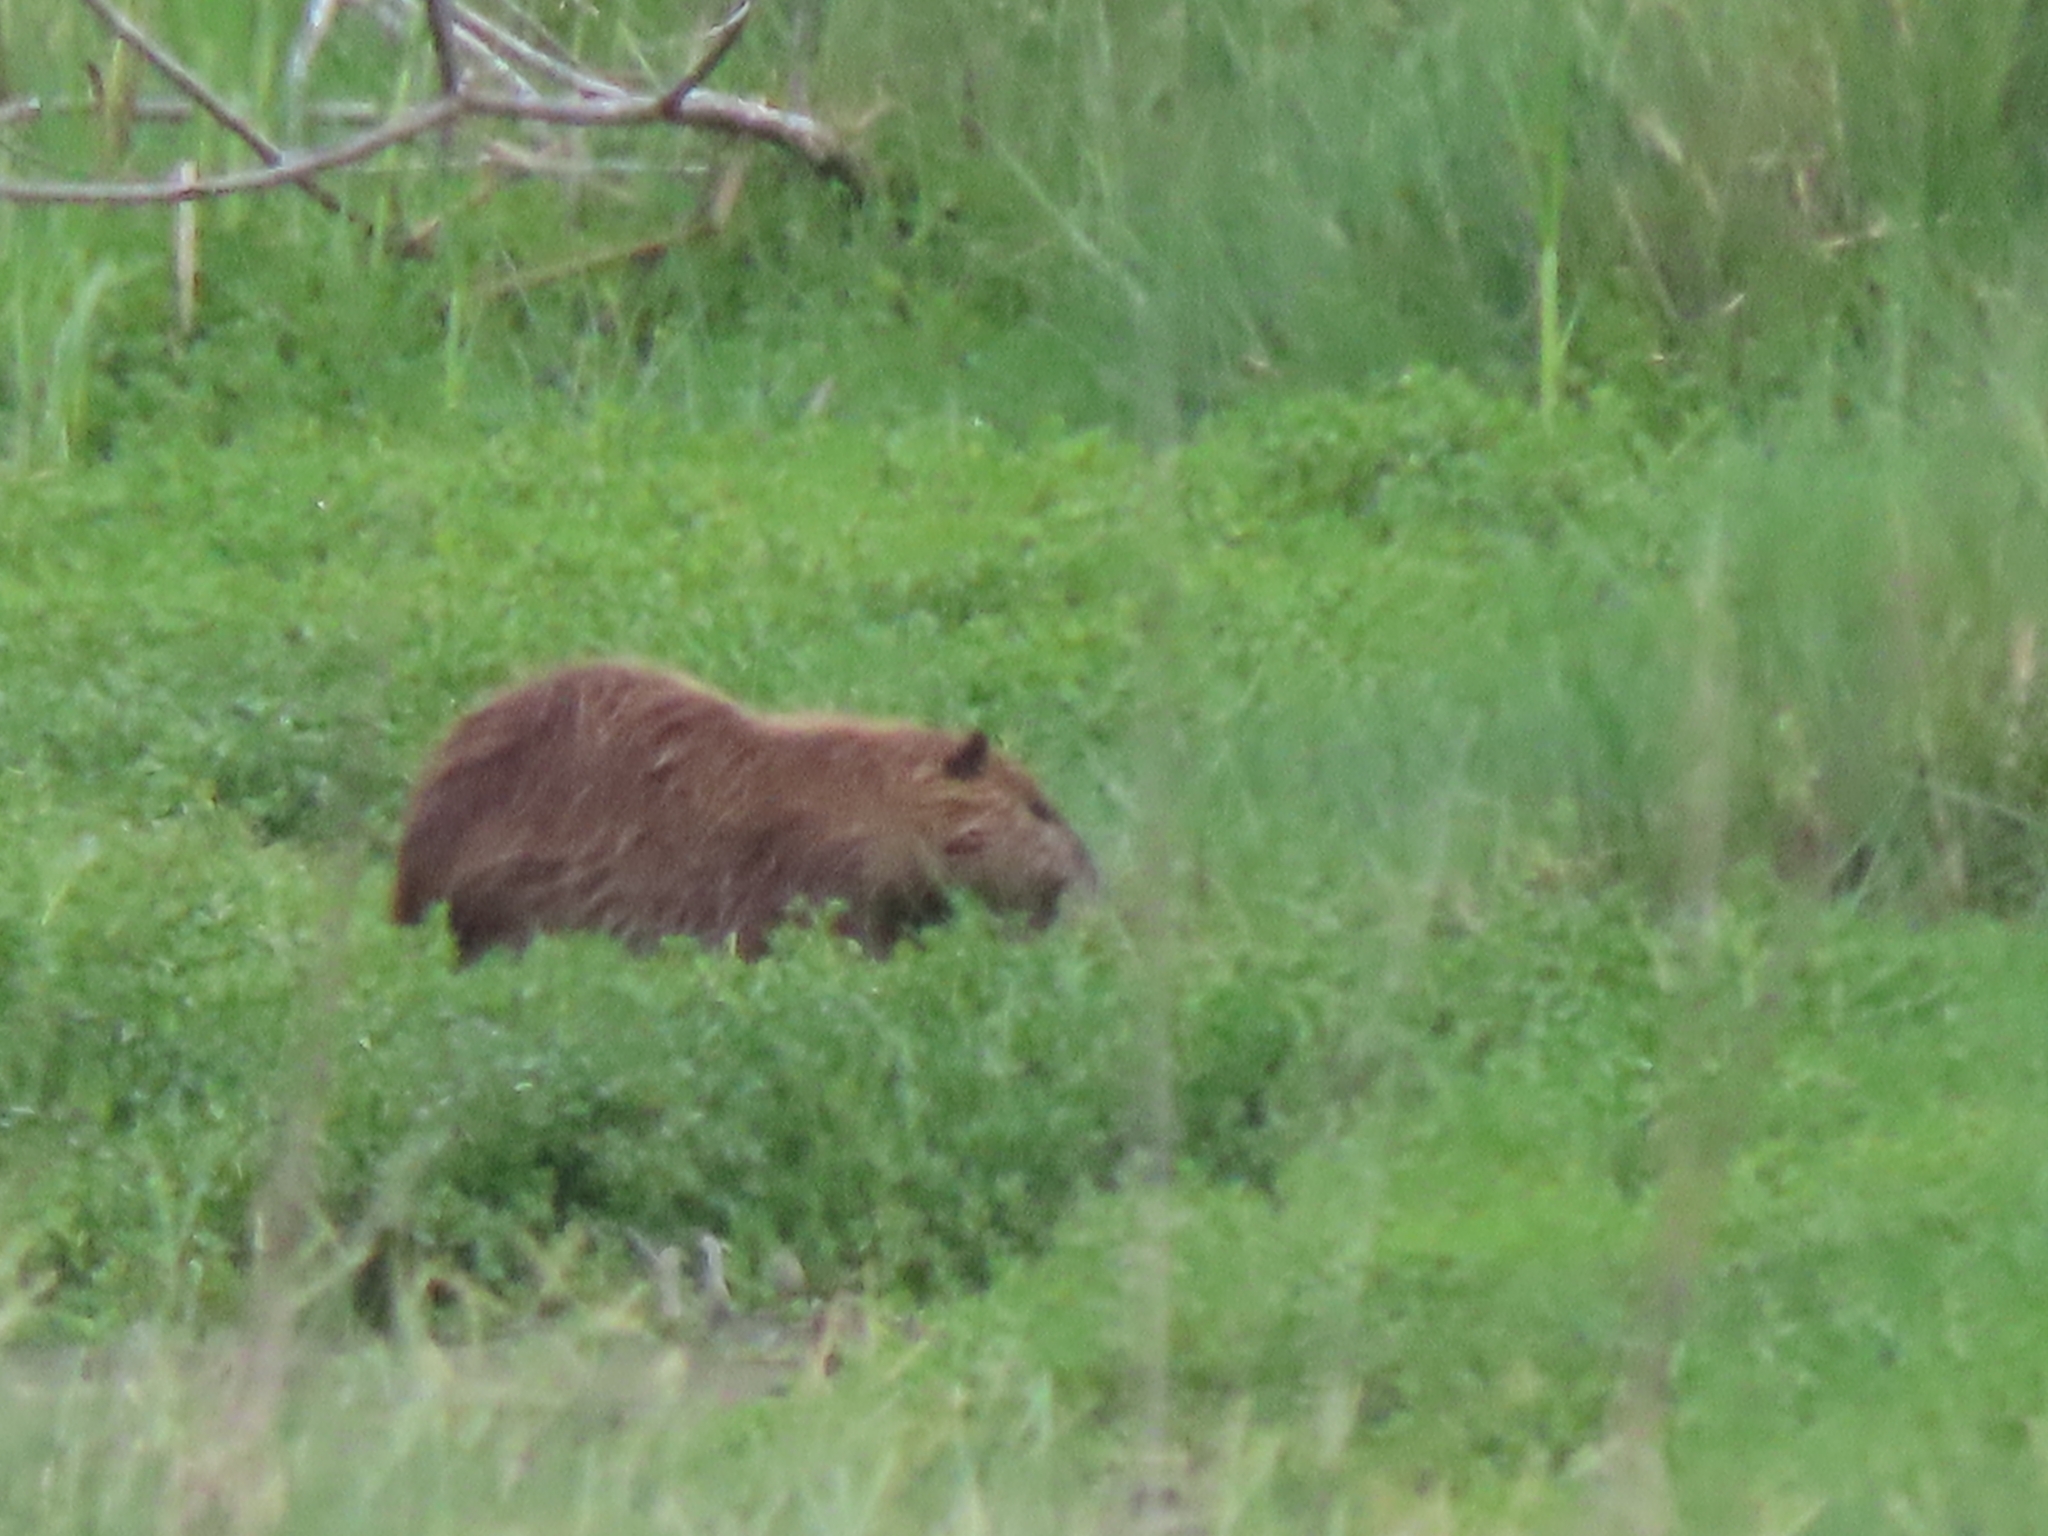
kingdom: Animalia
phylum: Chordata
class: Mammalia
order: Rodentia
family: Myocastoridae
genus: Myocastor
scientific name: Myocastor coypus
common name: Coypu
